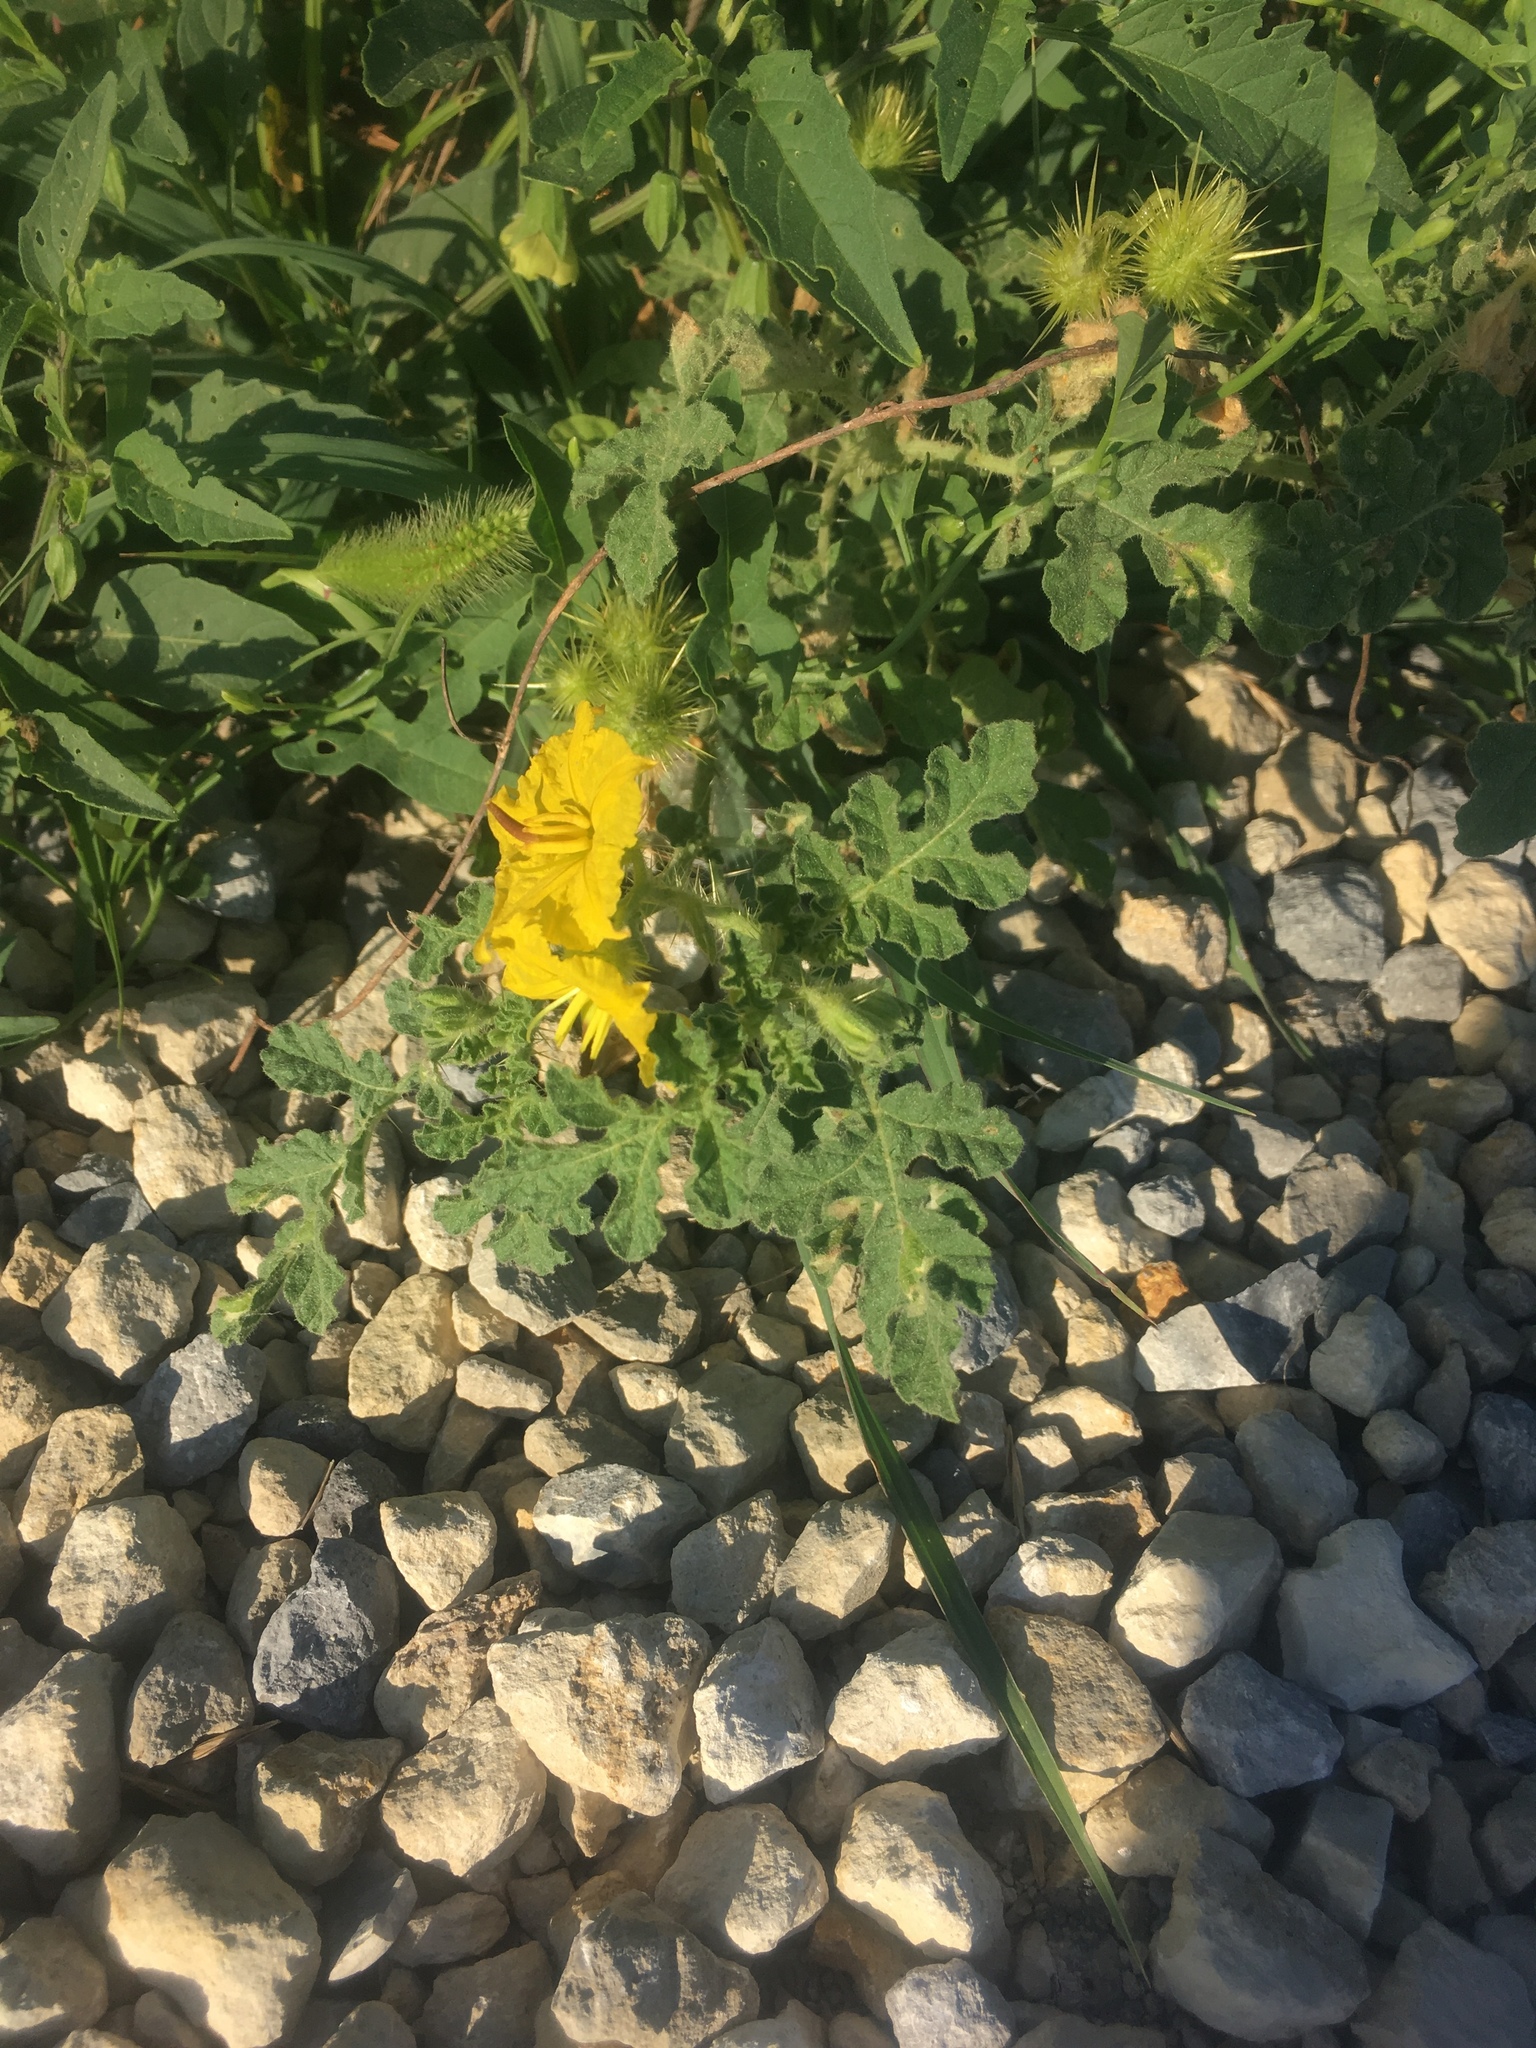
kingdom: Plantae
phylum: Tracheophyta
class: Magnoliopsida
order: Solanales
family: Solanaceae
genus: Solanum
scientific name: Solanum angustifolium
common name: Buffalobur nightshade
